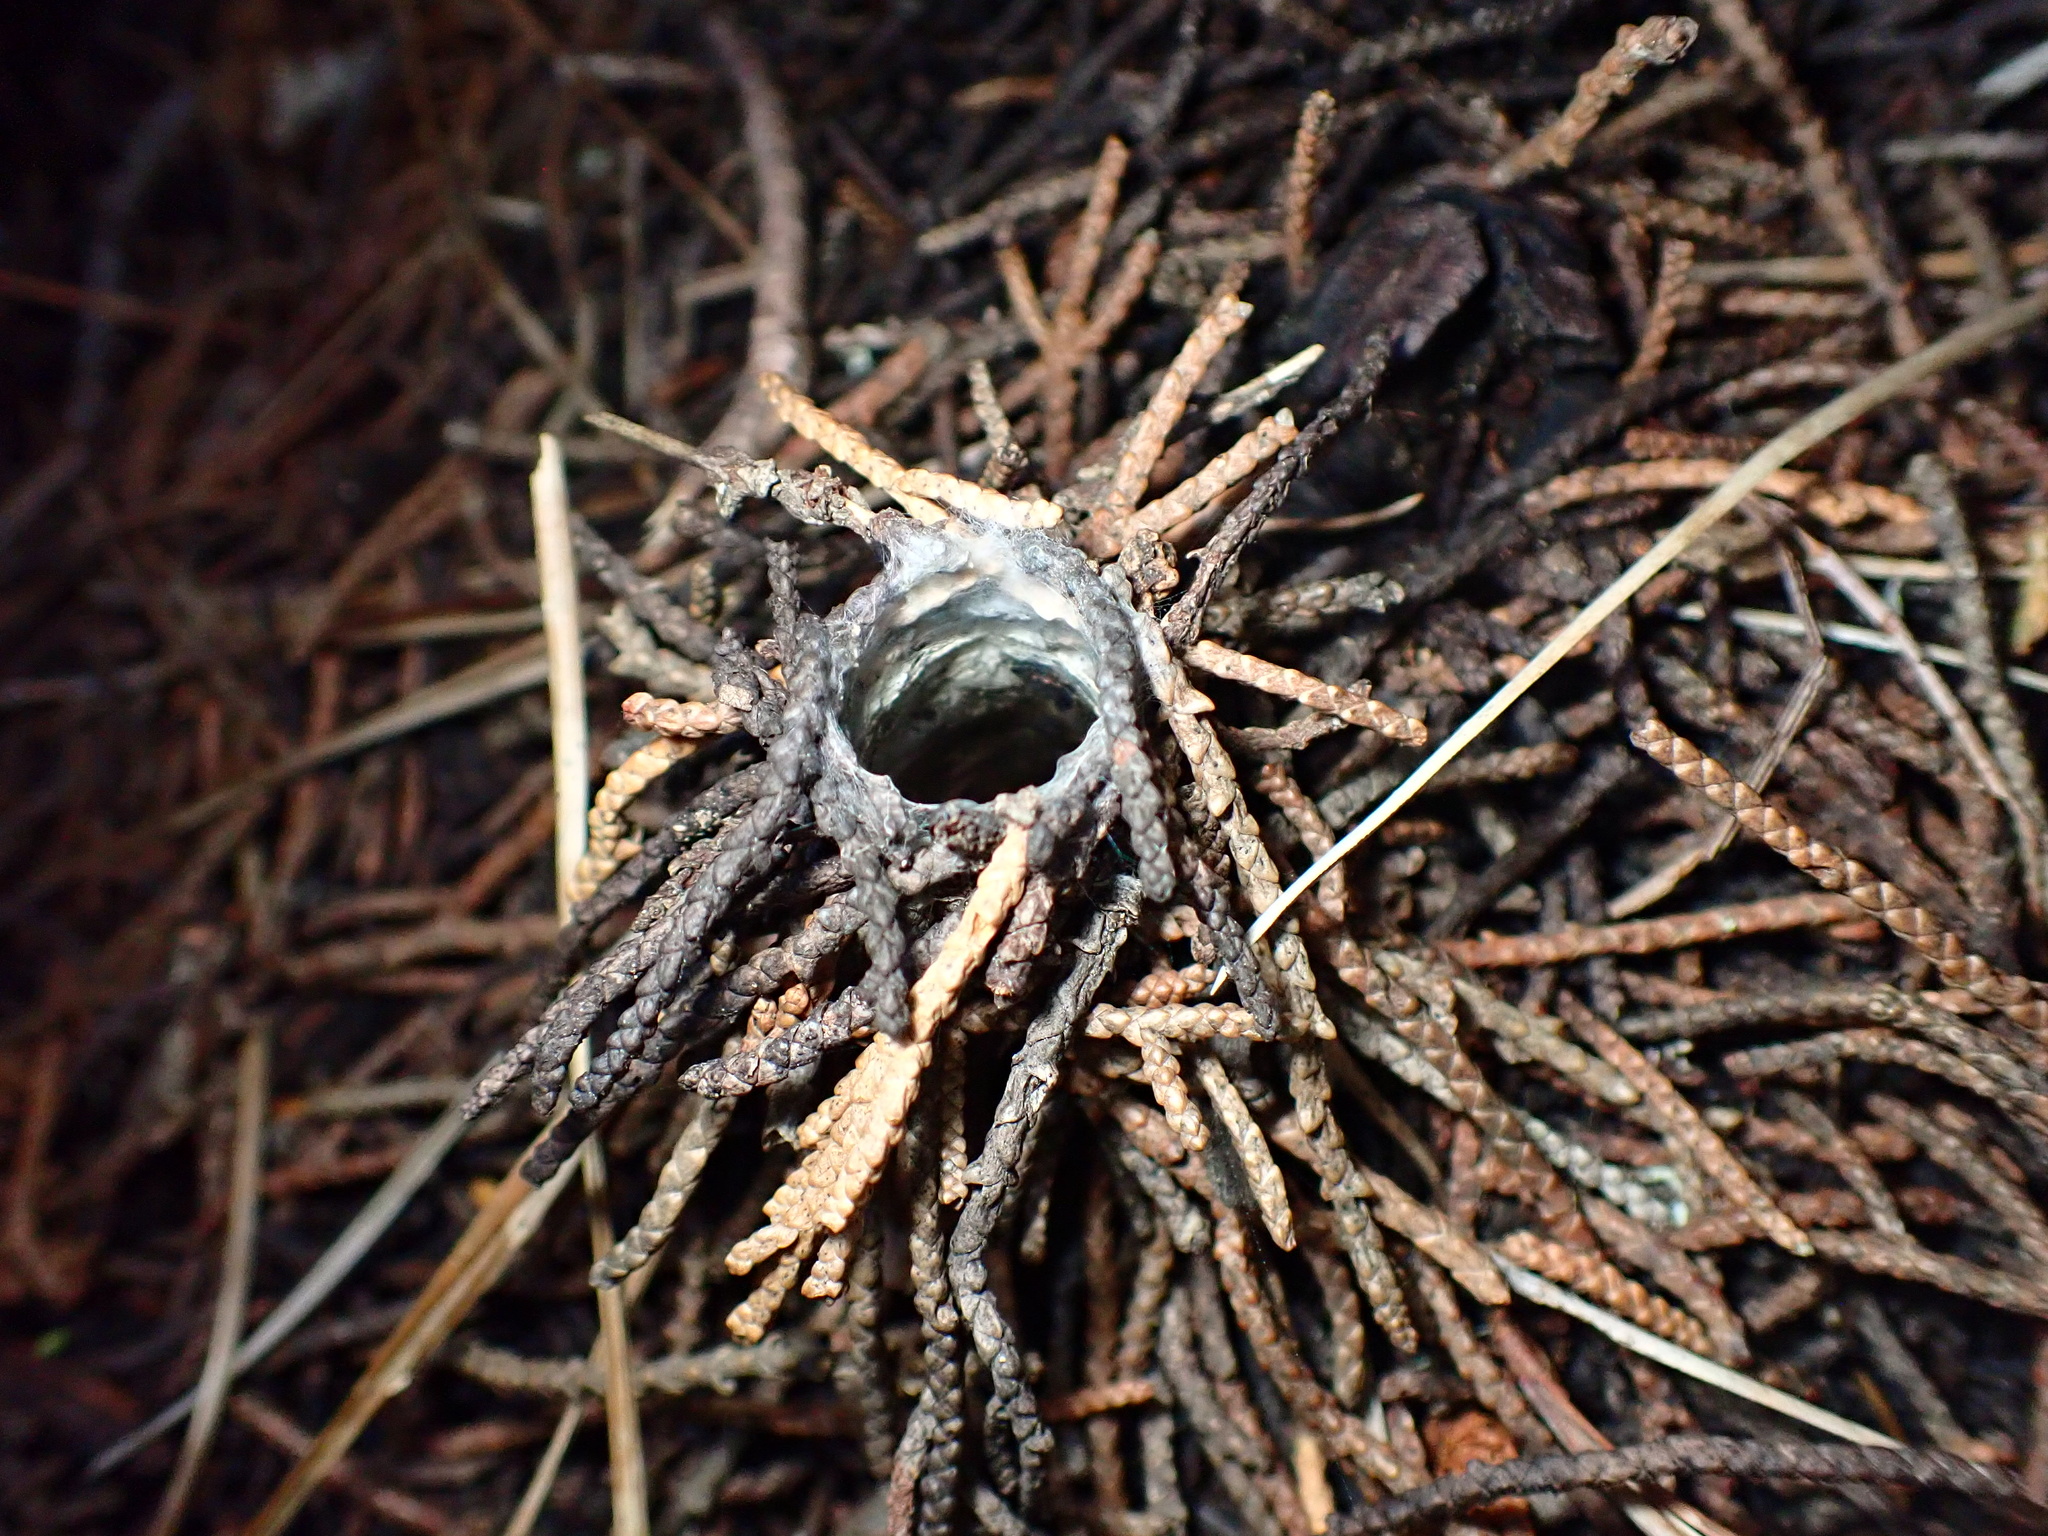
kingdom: Animalia
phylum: Arthropoda
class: Arachnida
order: Araneae
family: Antrodiaetidae
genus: Atypoides
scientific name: Atypoides riversi
